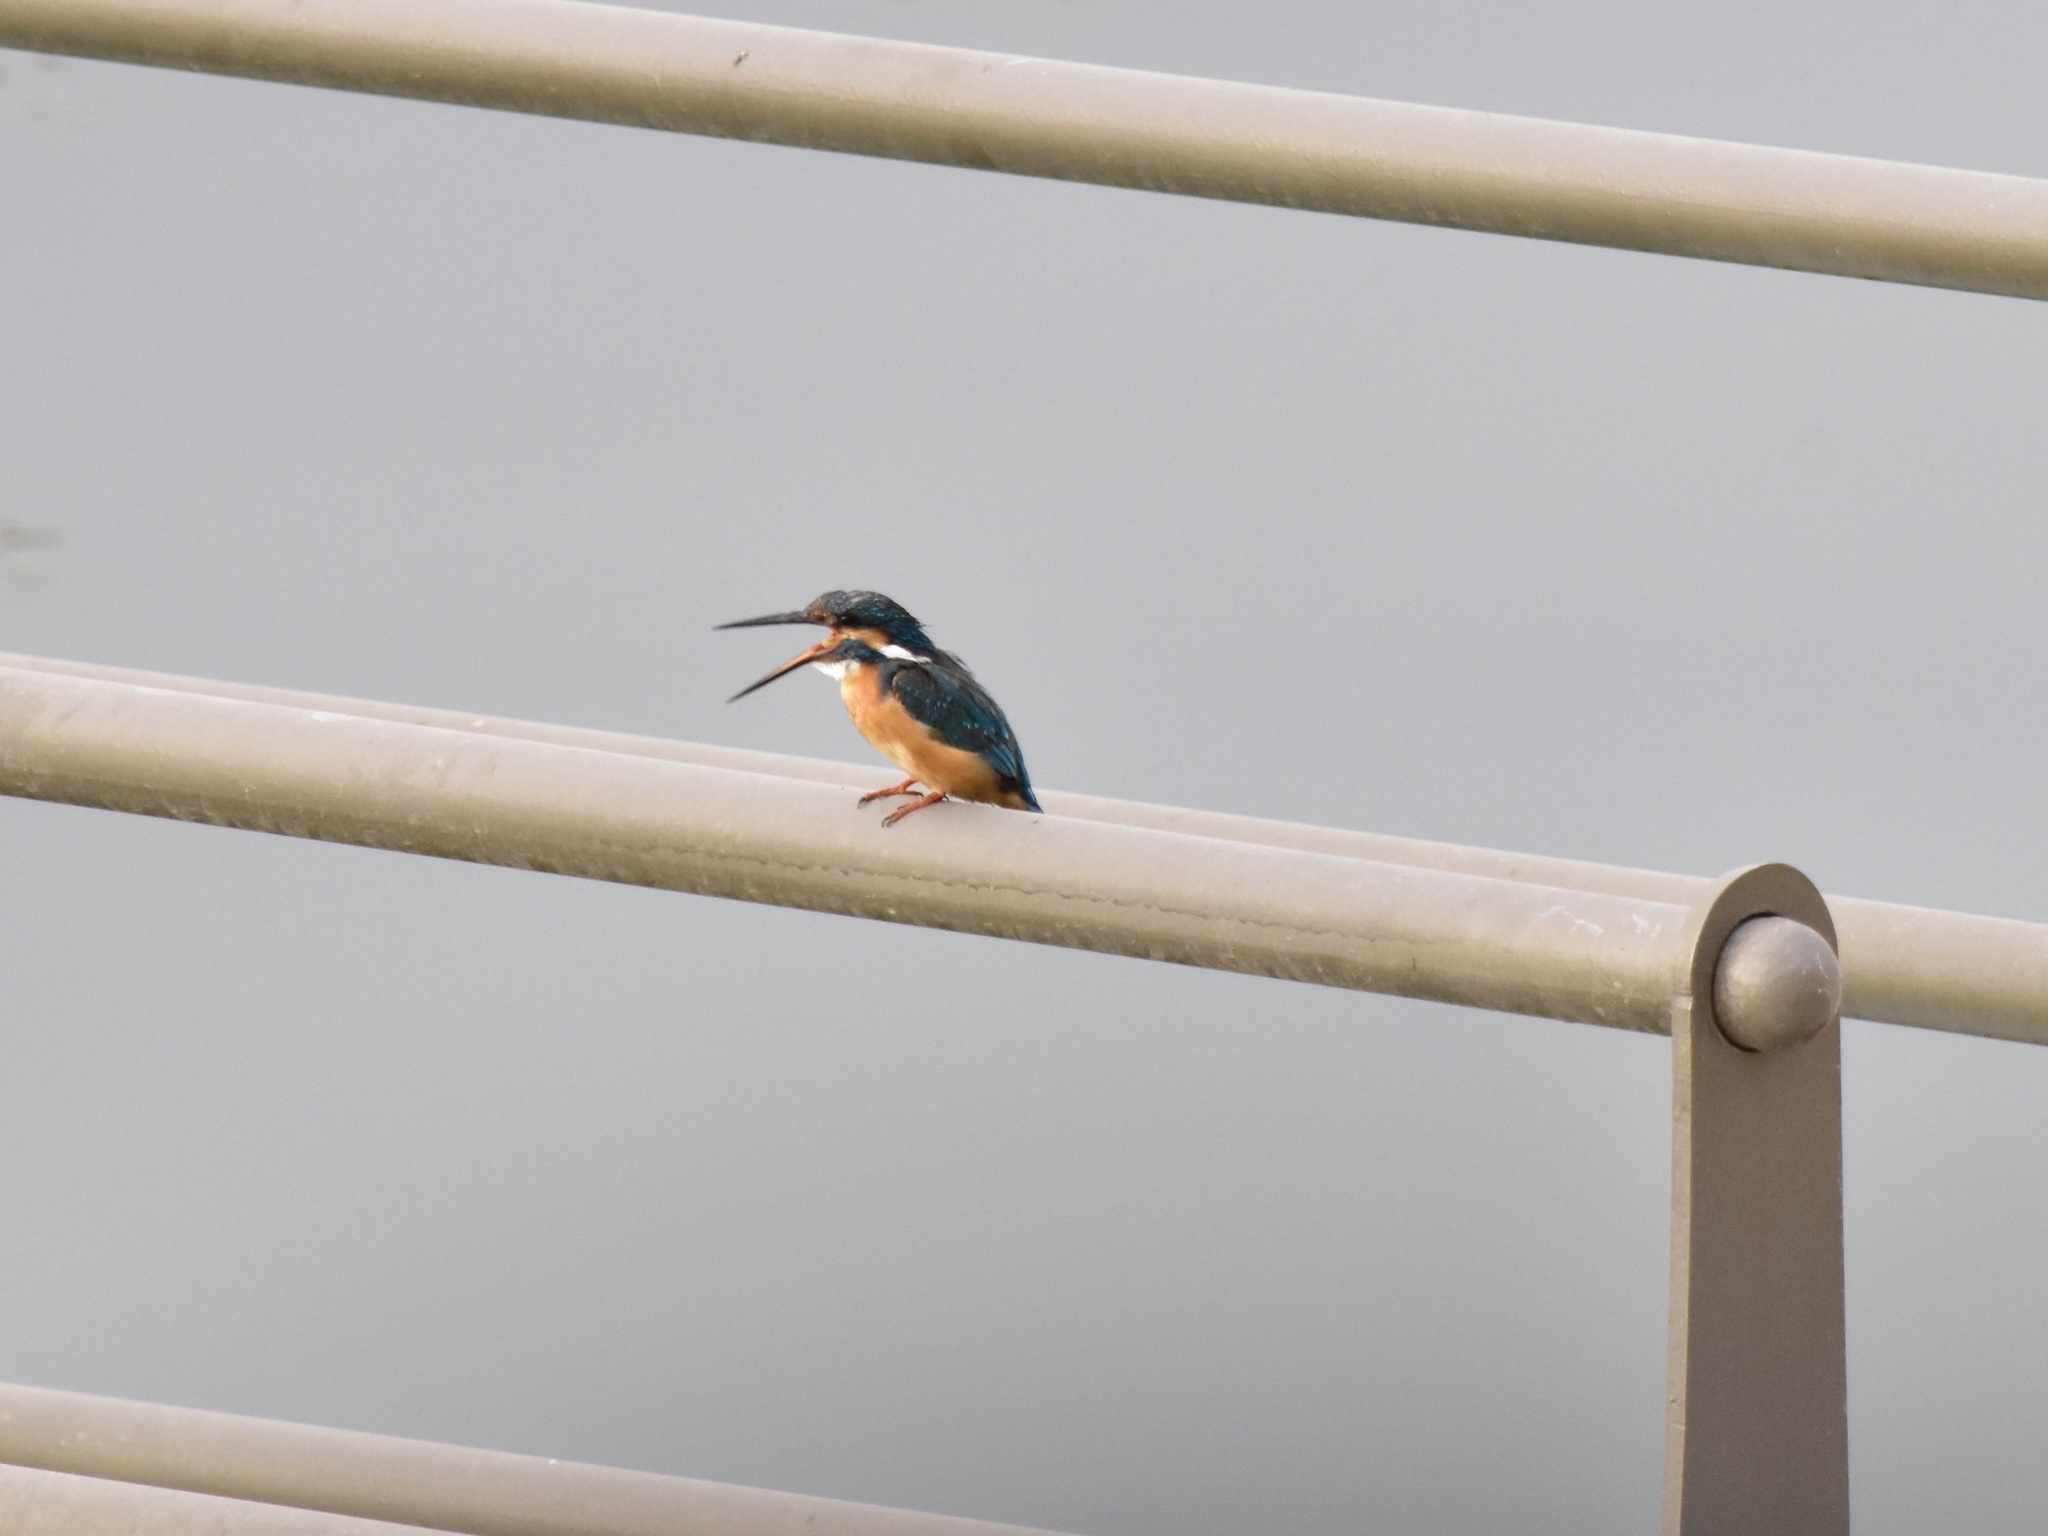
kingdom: Animalia
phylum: Chordata
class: Aves
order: Coraciiformes
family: Alcedinidae
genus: Alcedo
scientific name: Alcedo atthis
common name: Common kingfisher
